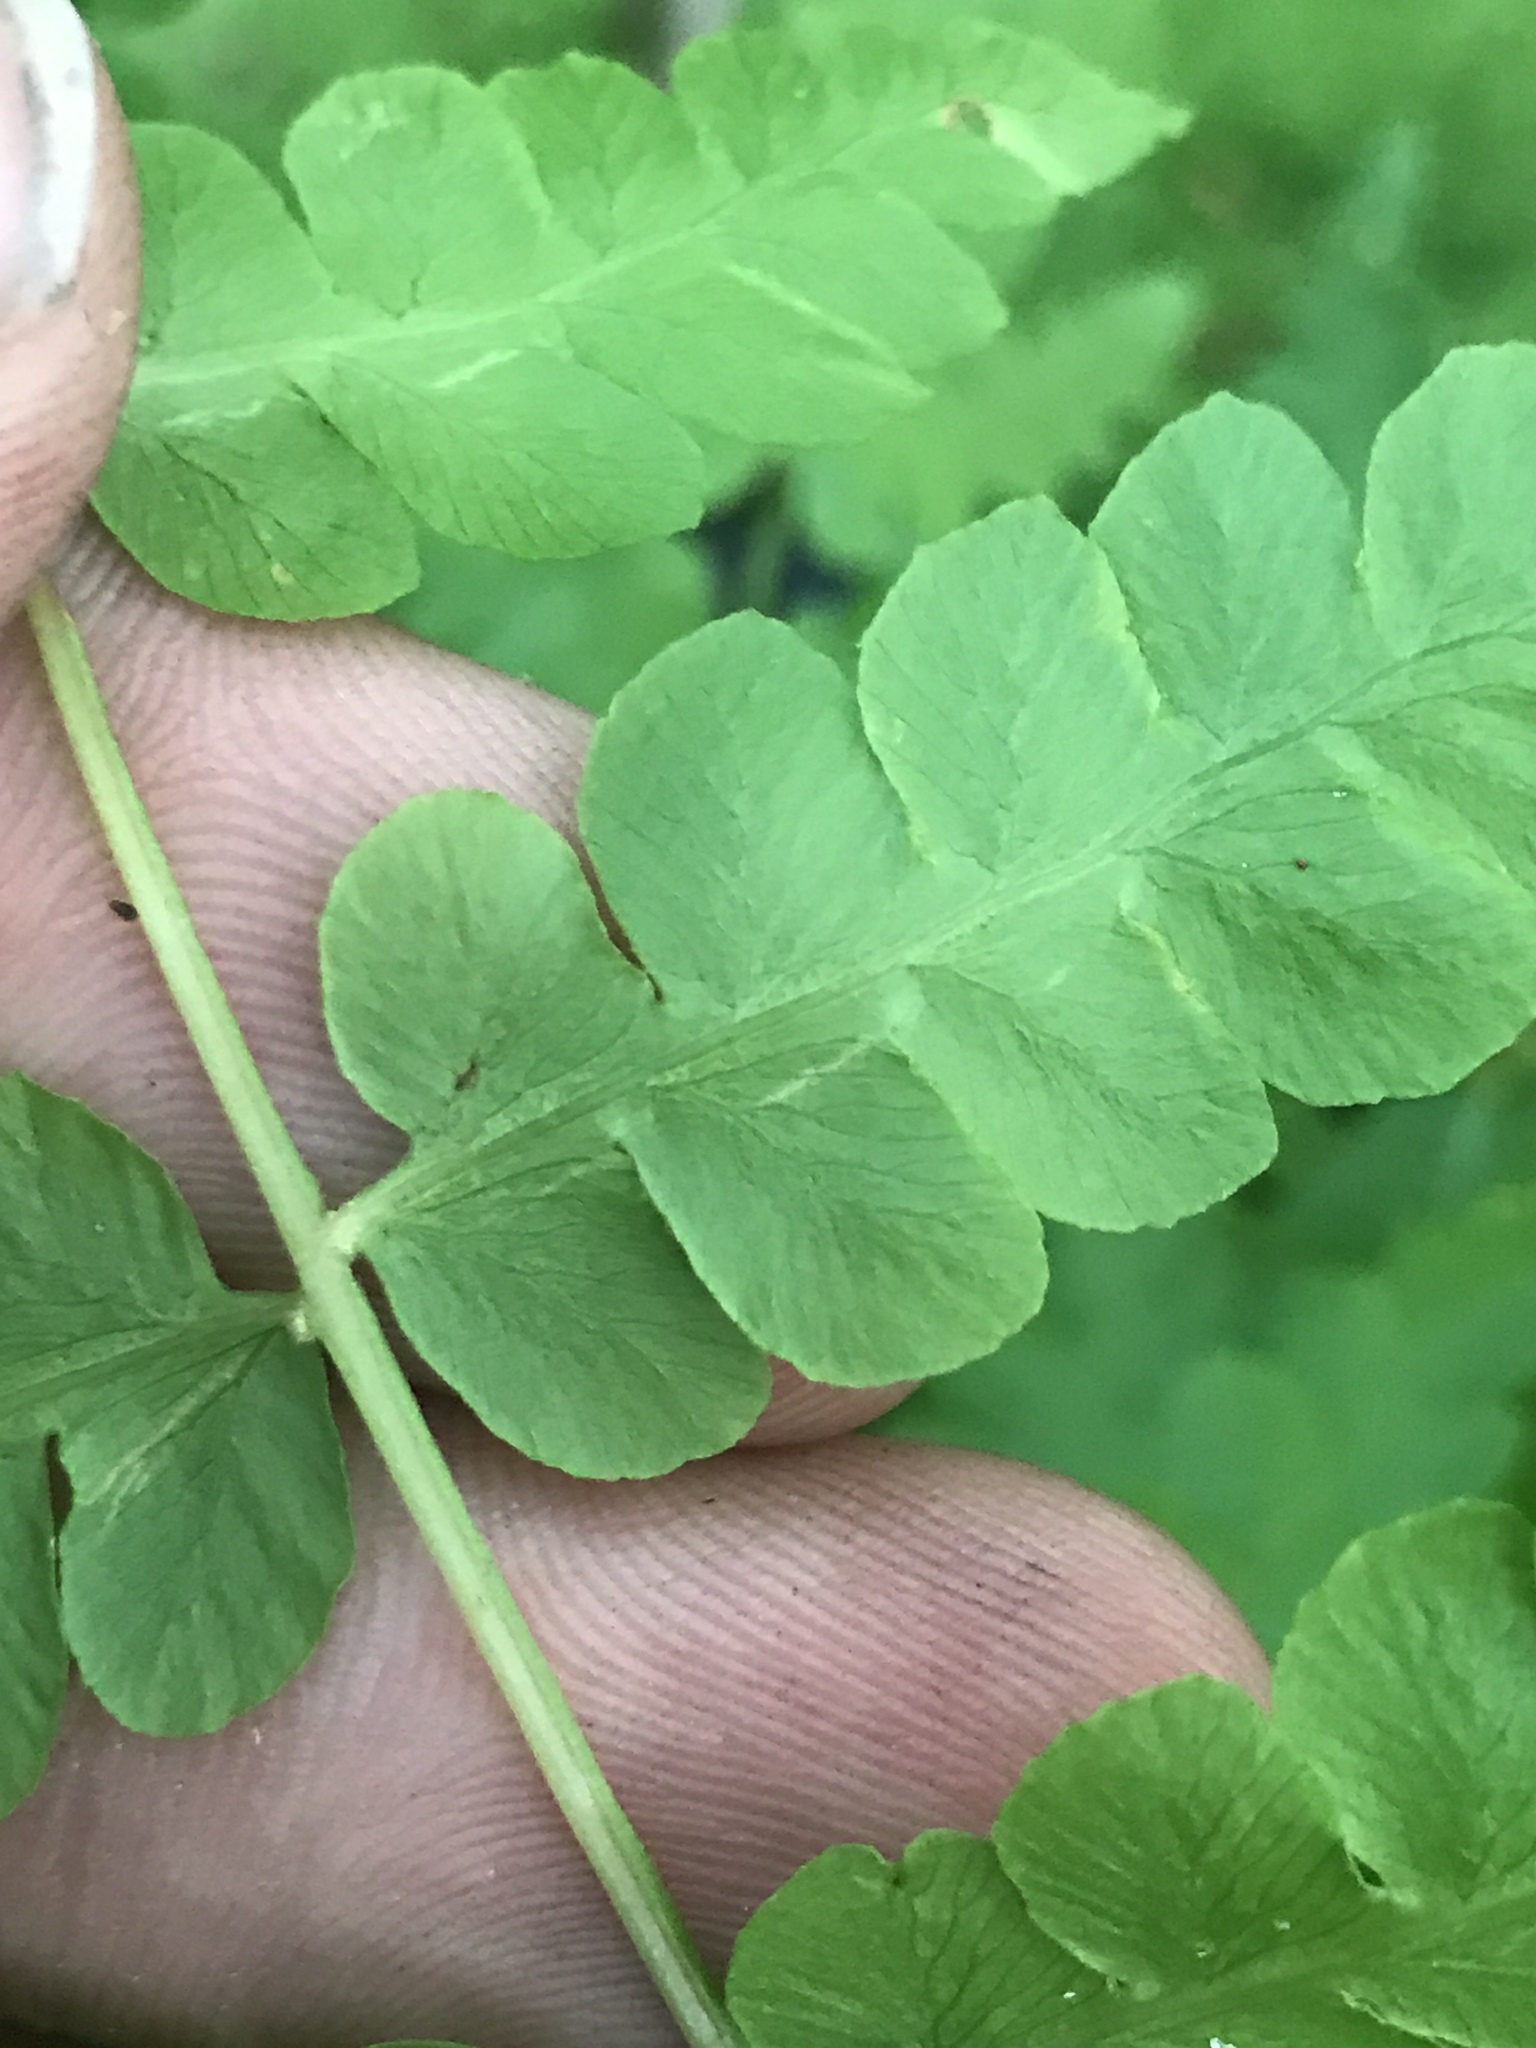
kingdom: Plantae
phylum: Tracheophyta
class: Polypodiopsida
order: Osmundales
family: Osmundaceae
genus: Osmundastrum
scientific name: Osmundastrum cinnamomeum
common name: Cinnamon fern
